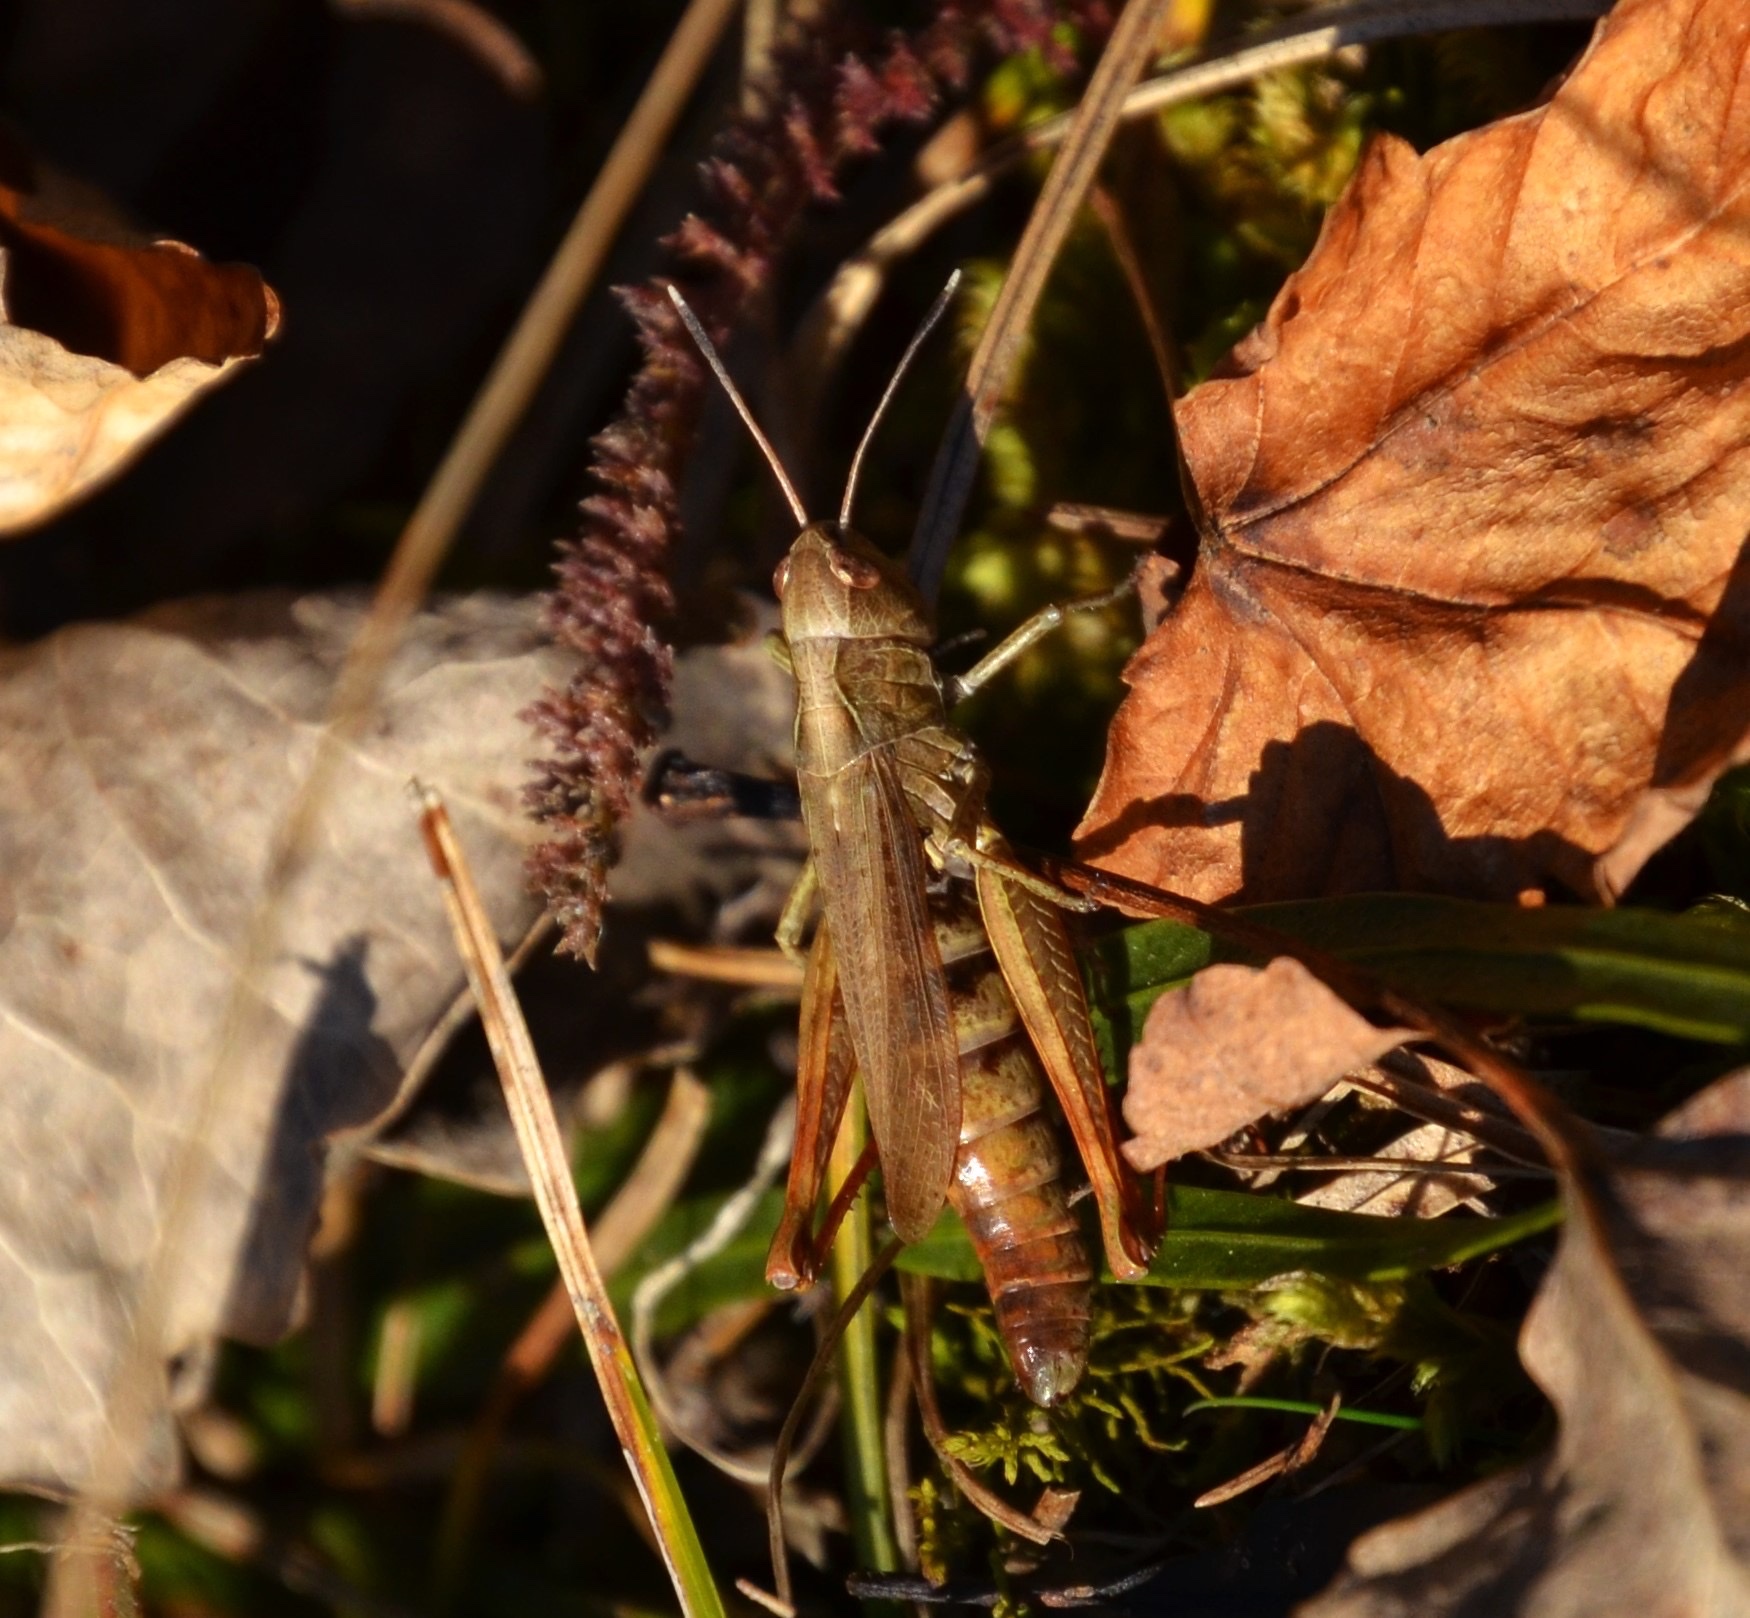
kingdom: Animalia
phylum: Arthropoda
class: Insecta
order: Orthoptera
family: Acrididae
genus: Gomphocerippus
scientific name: Gomphocerippus rufus
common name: Rufous grasshopper
